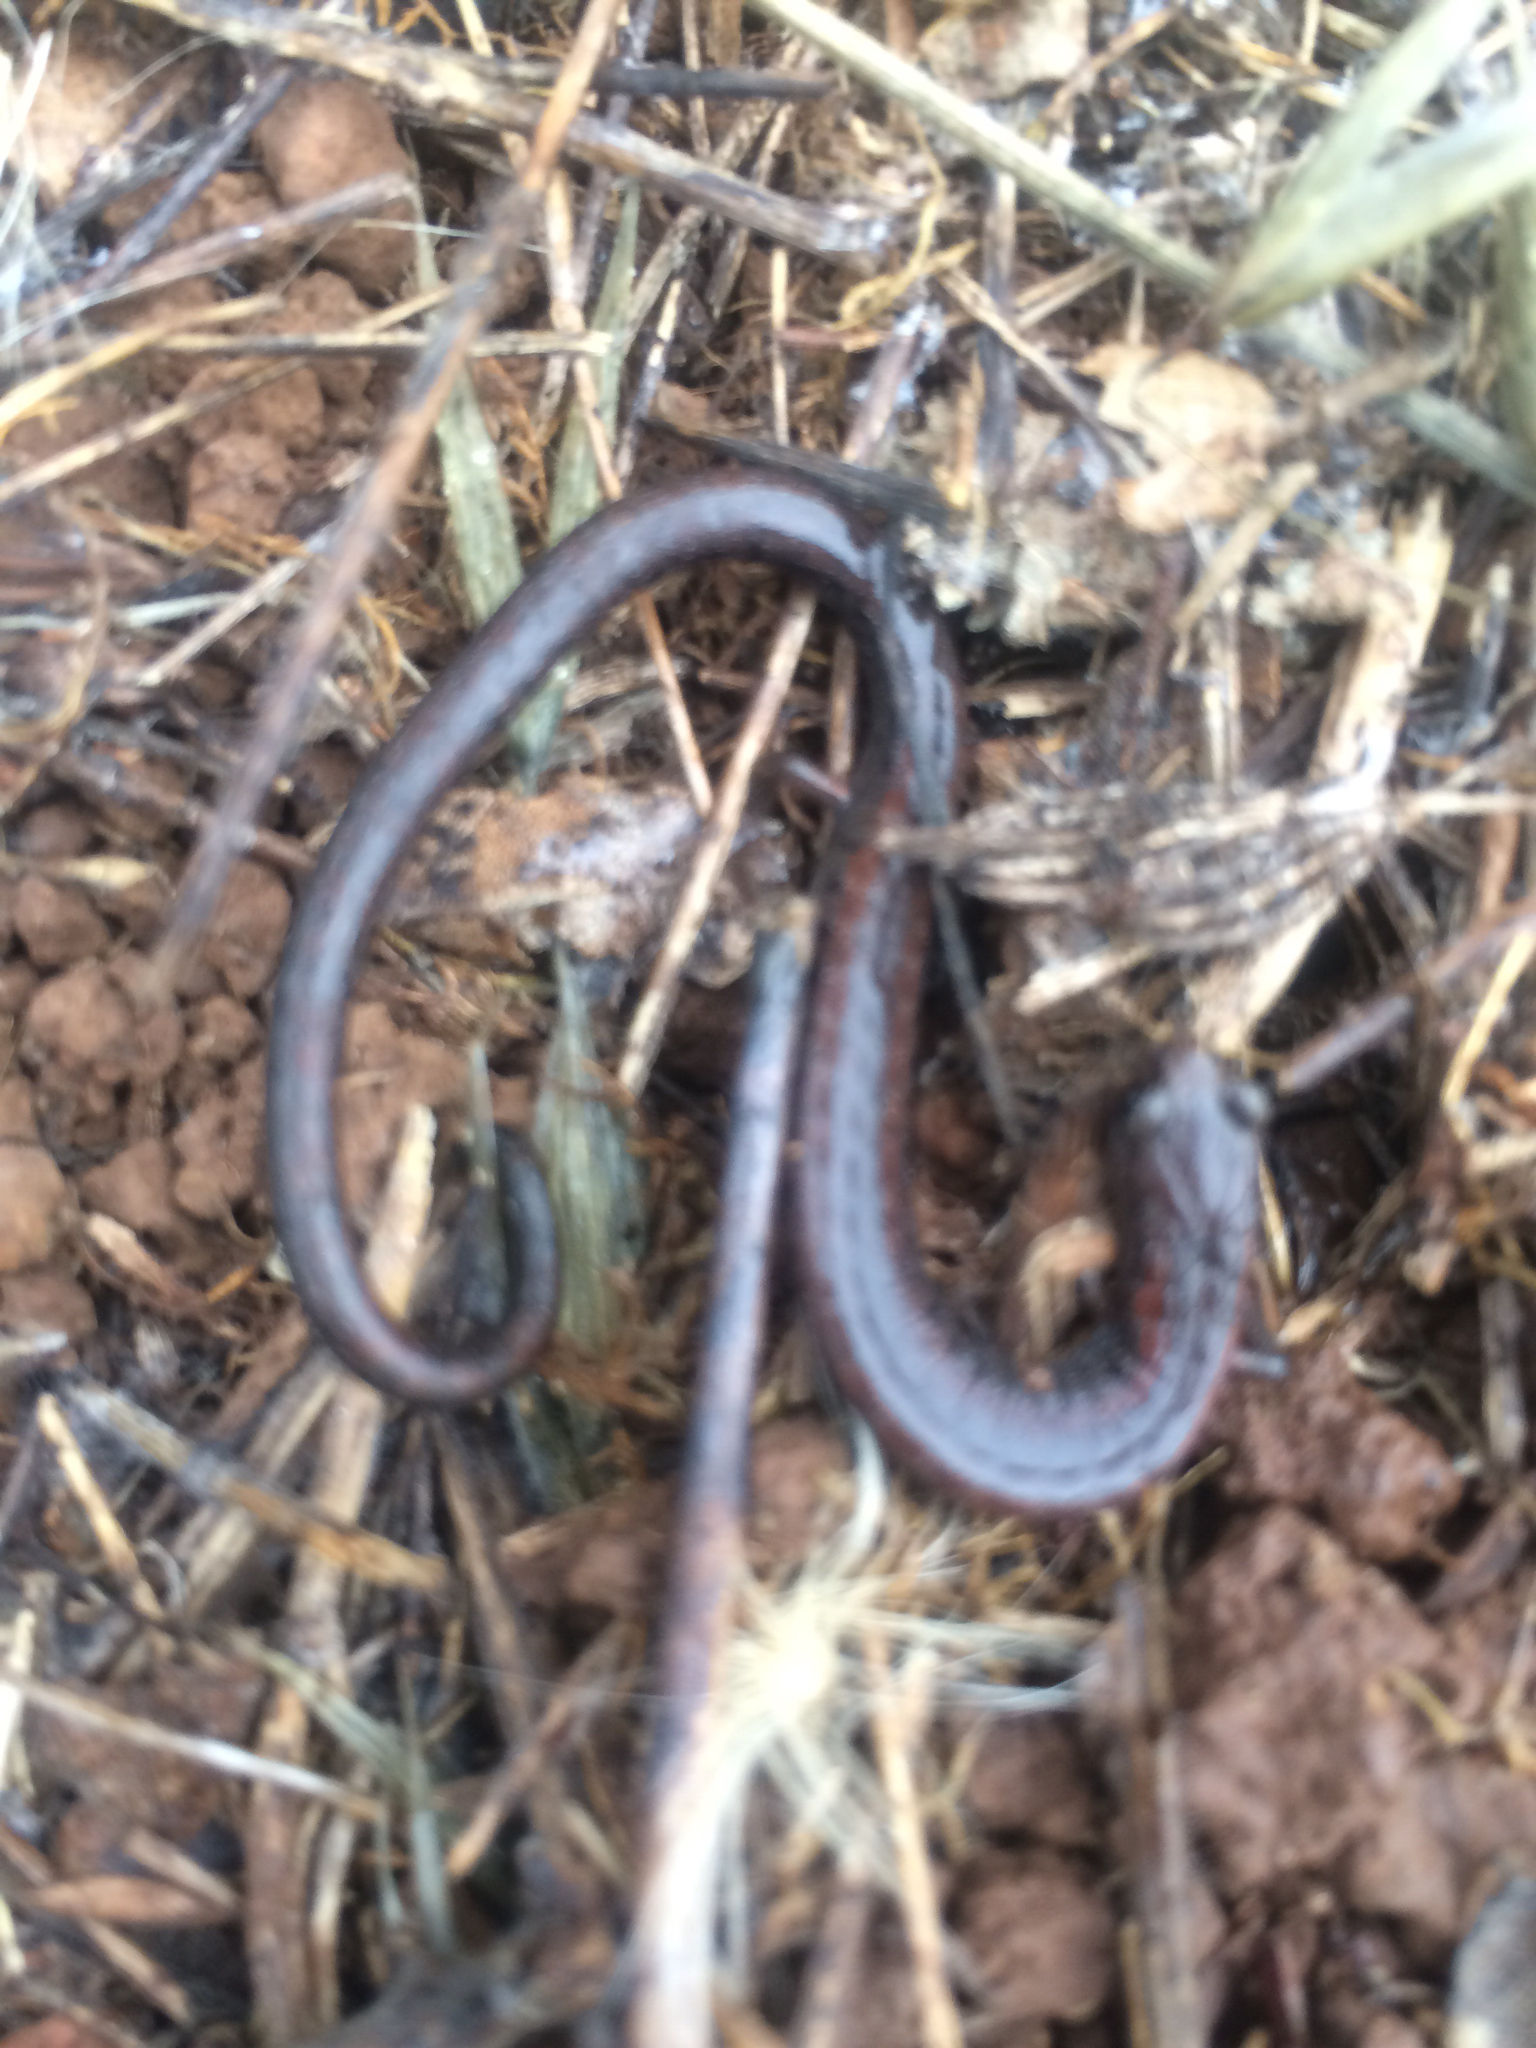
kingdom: Animalia
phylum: Chordata
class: Amphibia
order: Caudata
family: Plethodontidae
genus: Batrachoseps
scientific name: Batrachoseps attenuatus
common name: California slender salamander
